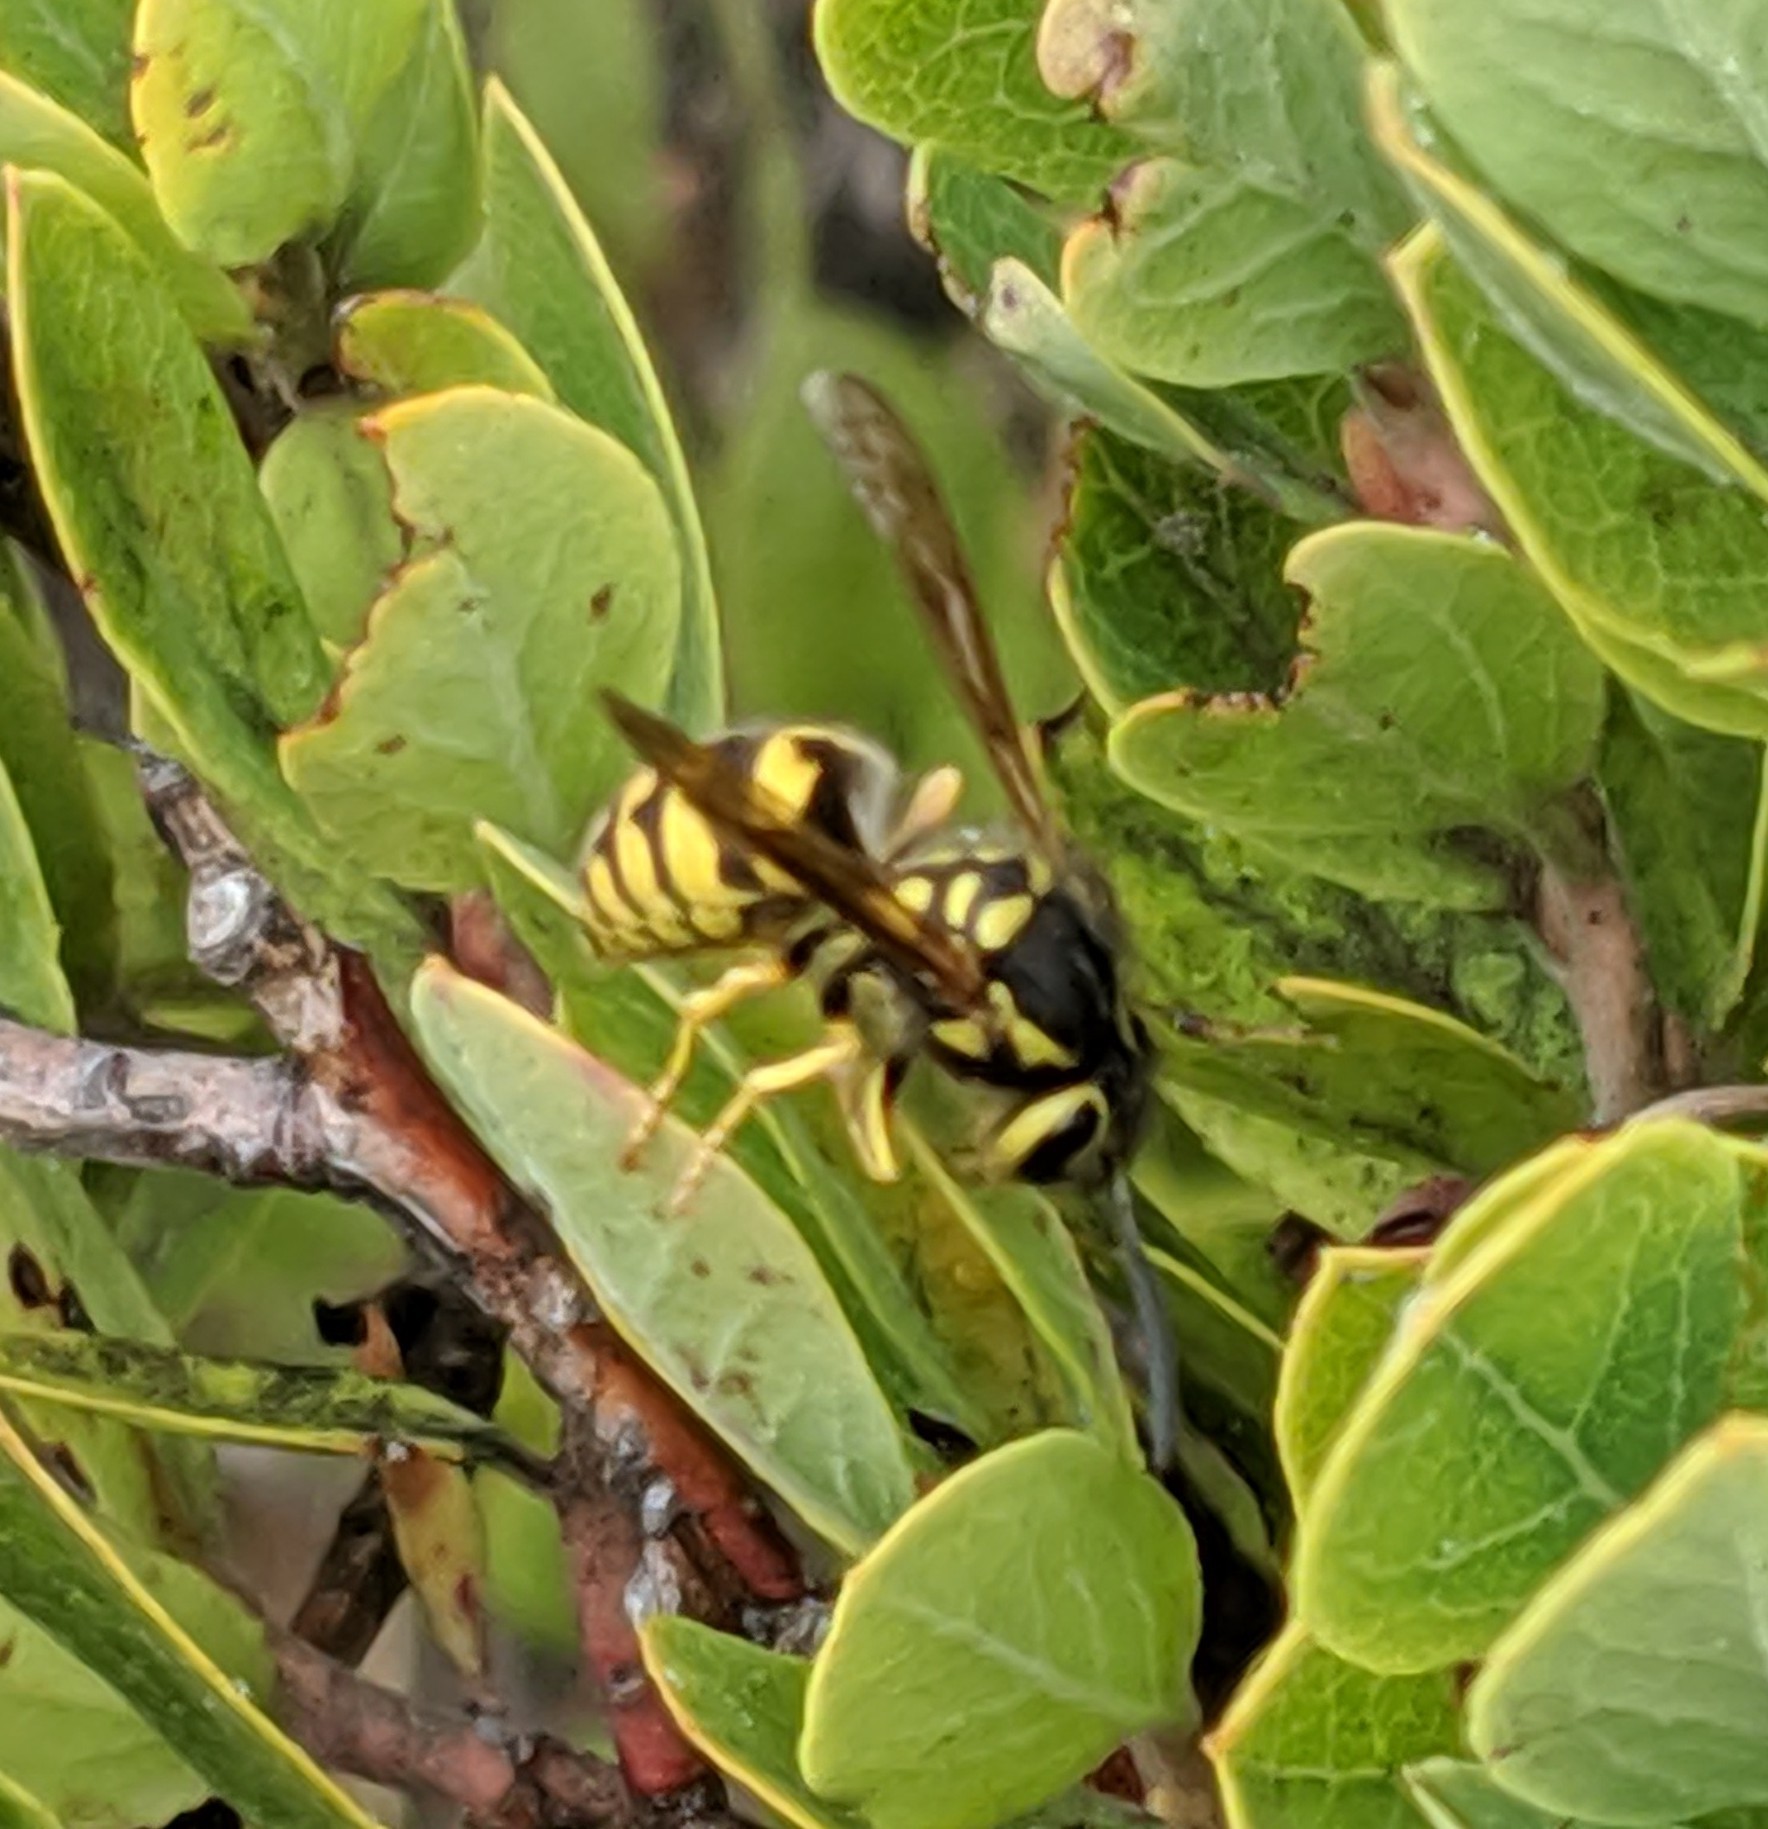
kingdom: Animalia
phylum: Arthropoda
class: Insecta
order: Hymenoptera
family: Vespidae
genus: Vespula
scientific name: Vespula pensylvanica
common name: Western yellowjacket
